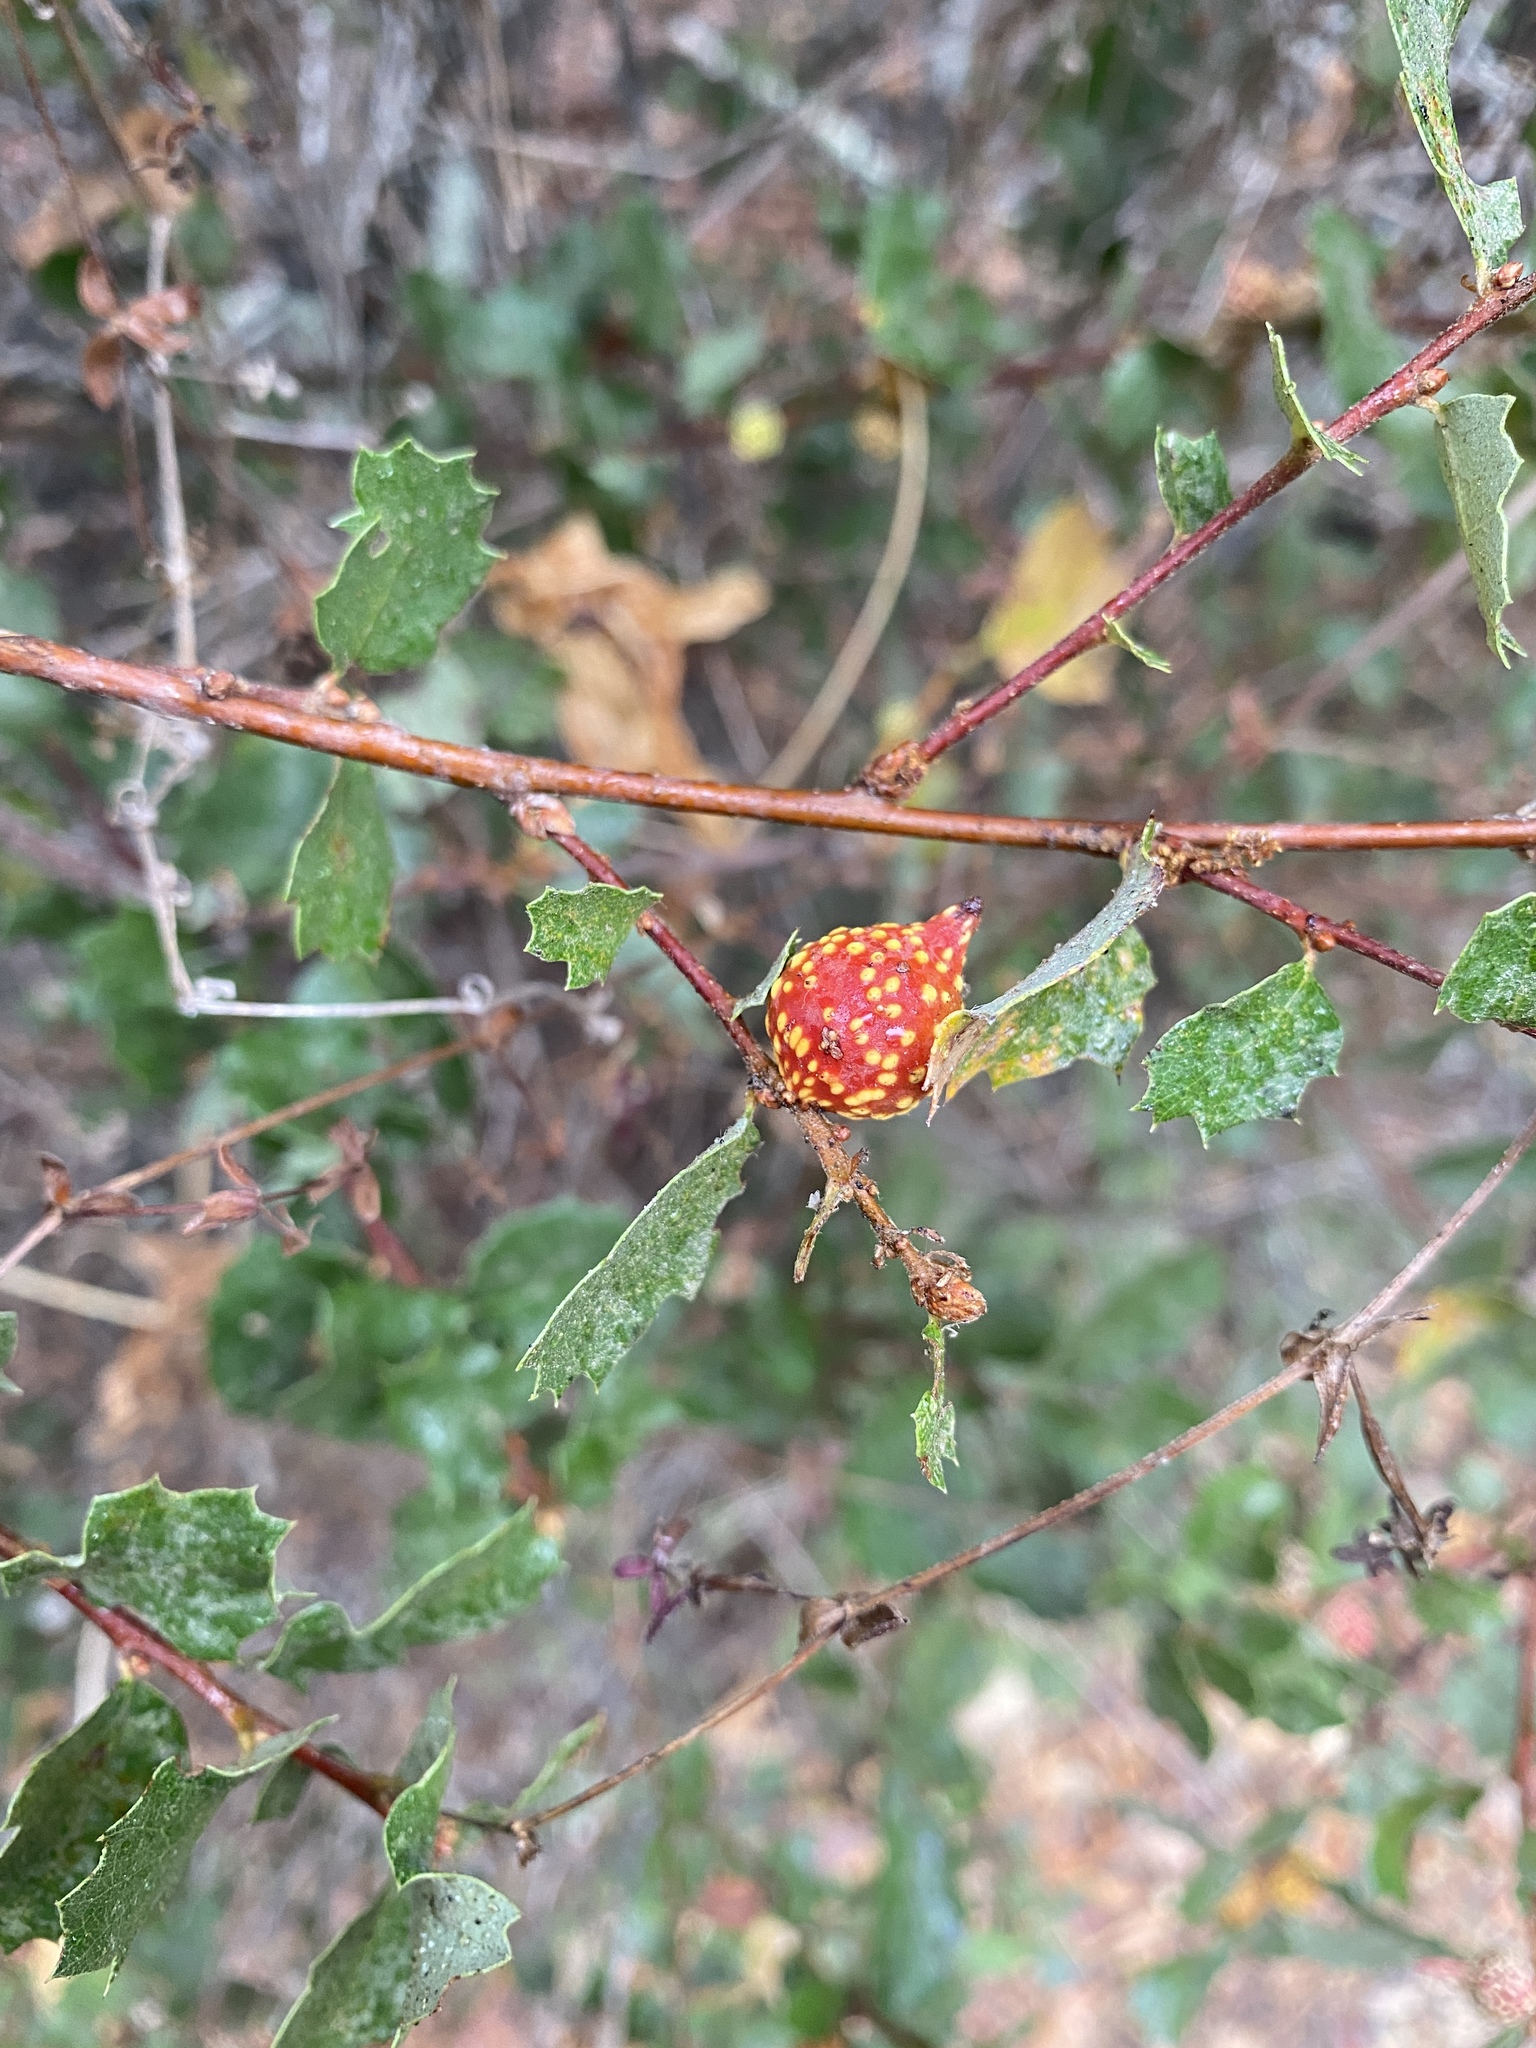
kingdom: Animalia
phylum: Arthropoda
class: Insecta
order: Hymenoptera
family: Cynipidae
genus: Burnettweldia
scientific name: Burnettweldia
